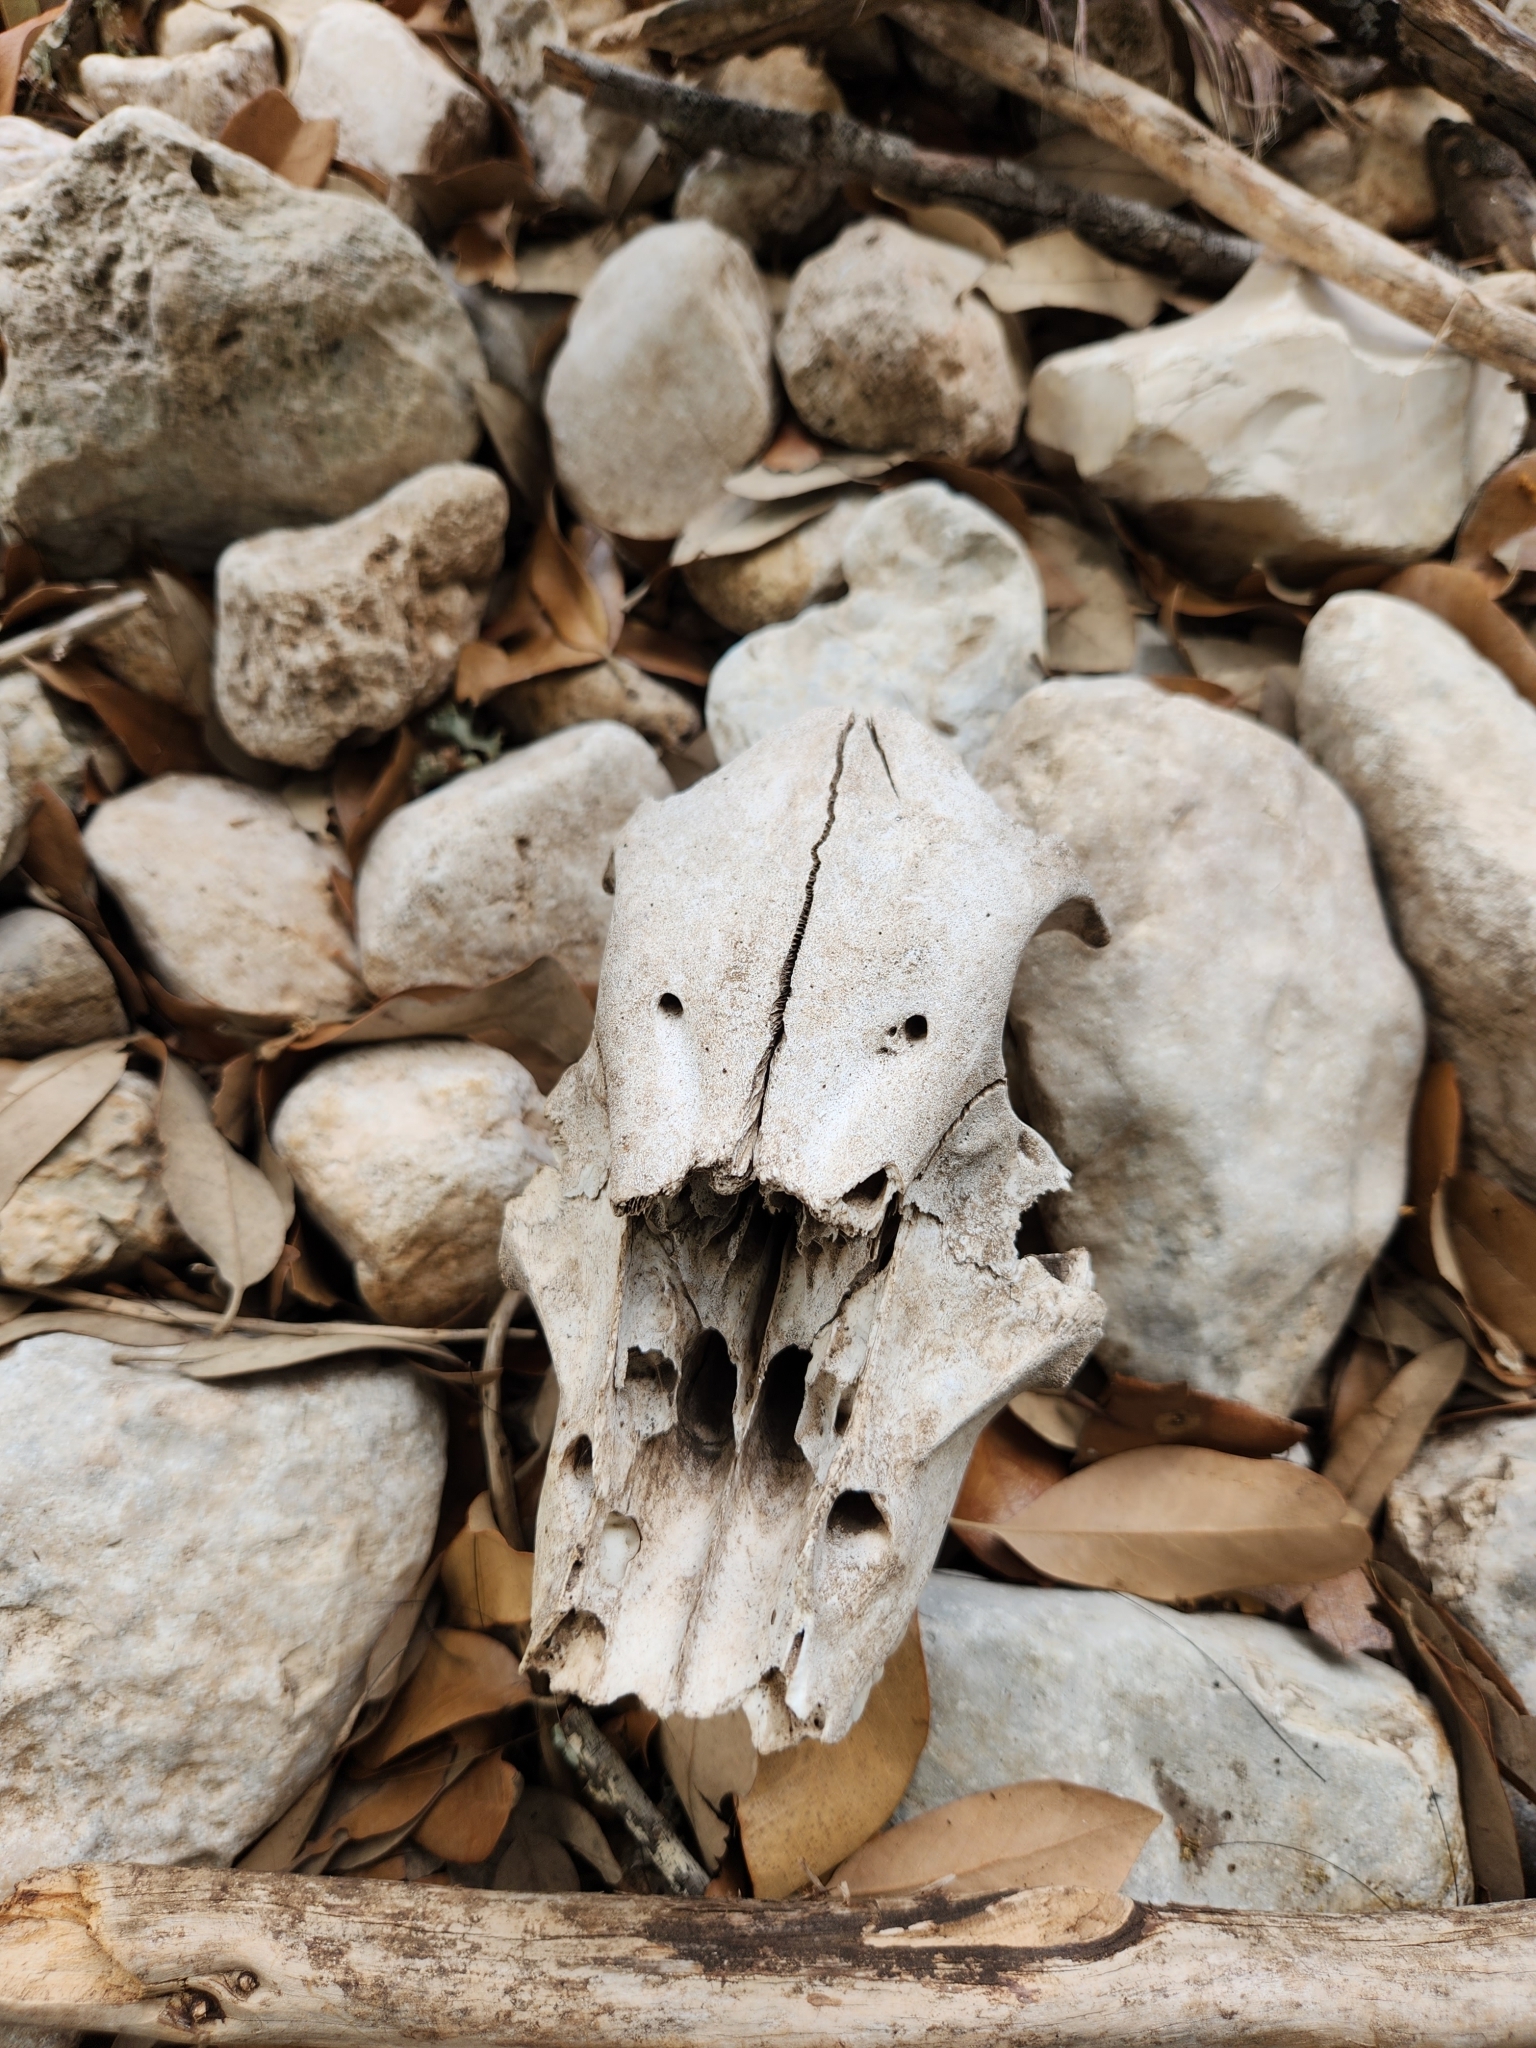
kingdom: Animalia
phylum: Chordata
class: Mammalia
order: Artiodactyla
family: Suidae
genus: Sus
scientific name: Sus scrofa
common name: Wild boar
